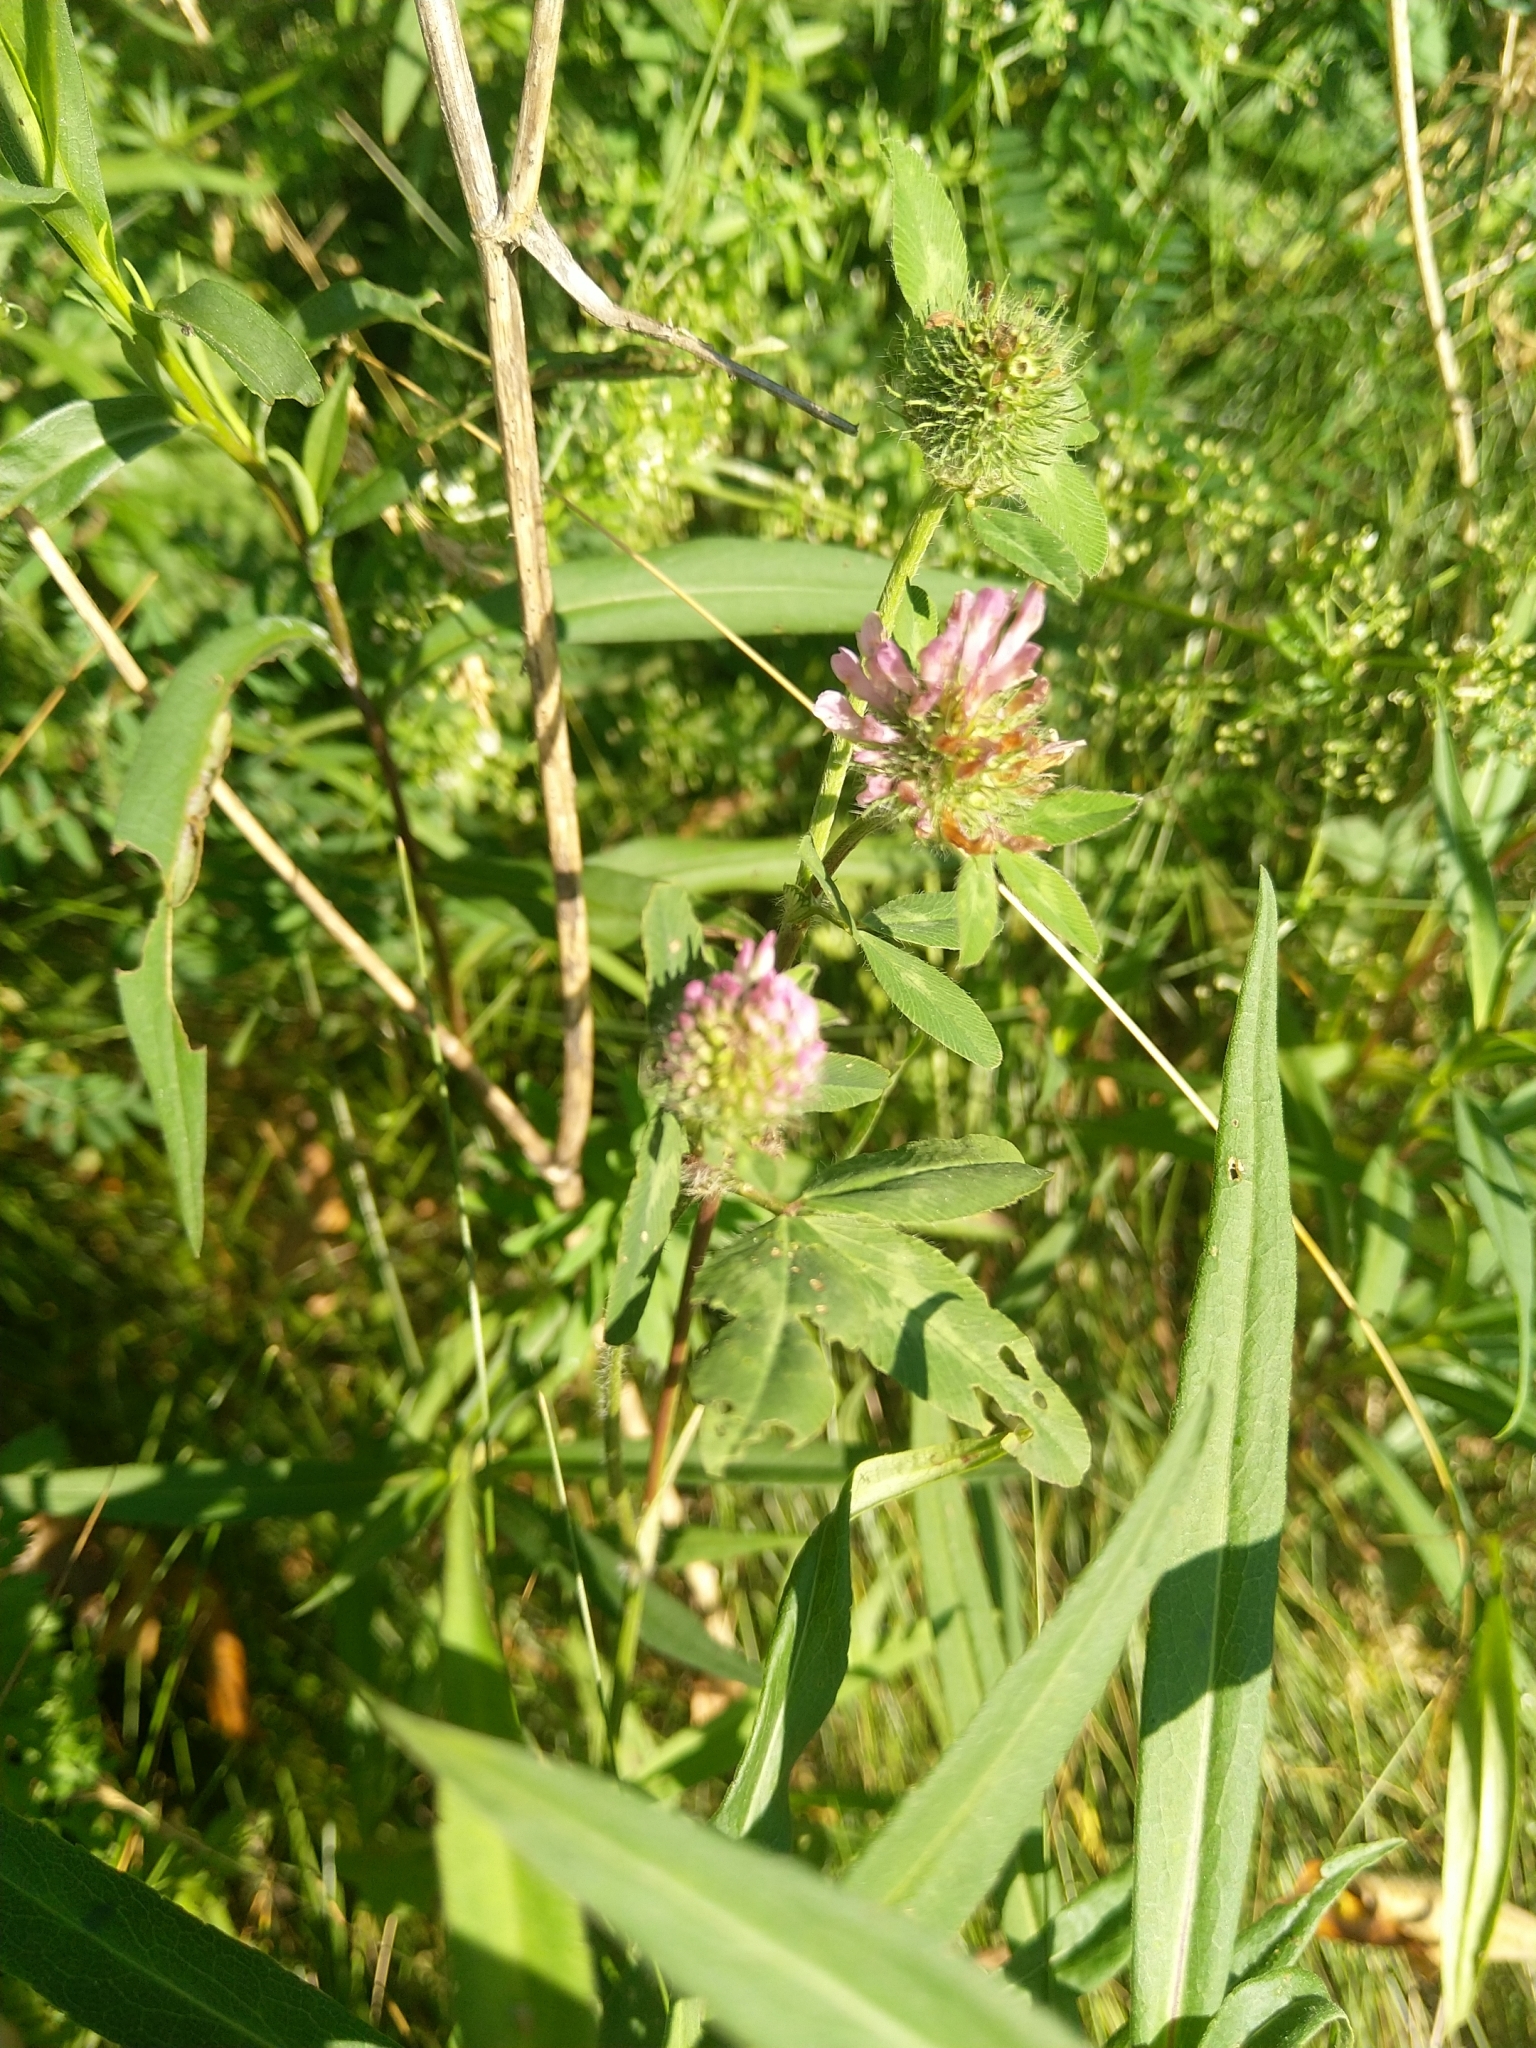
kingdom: Plantae
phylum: Tracheophyta
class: Magnoliopsida
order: Fabales
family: Fabaceae
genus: Trifolium
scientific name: Trifolium pratense
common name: Red clover
